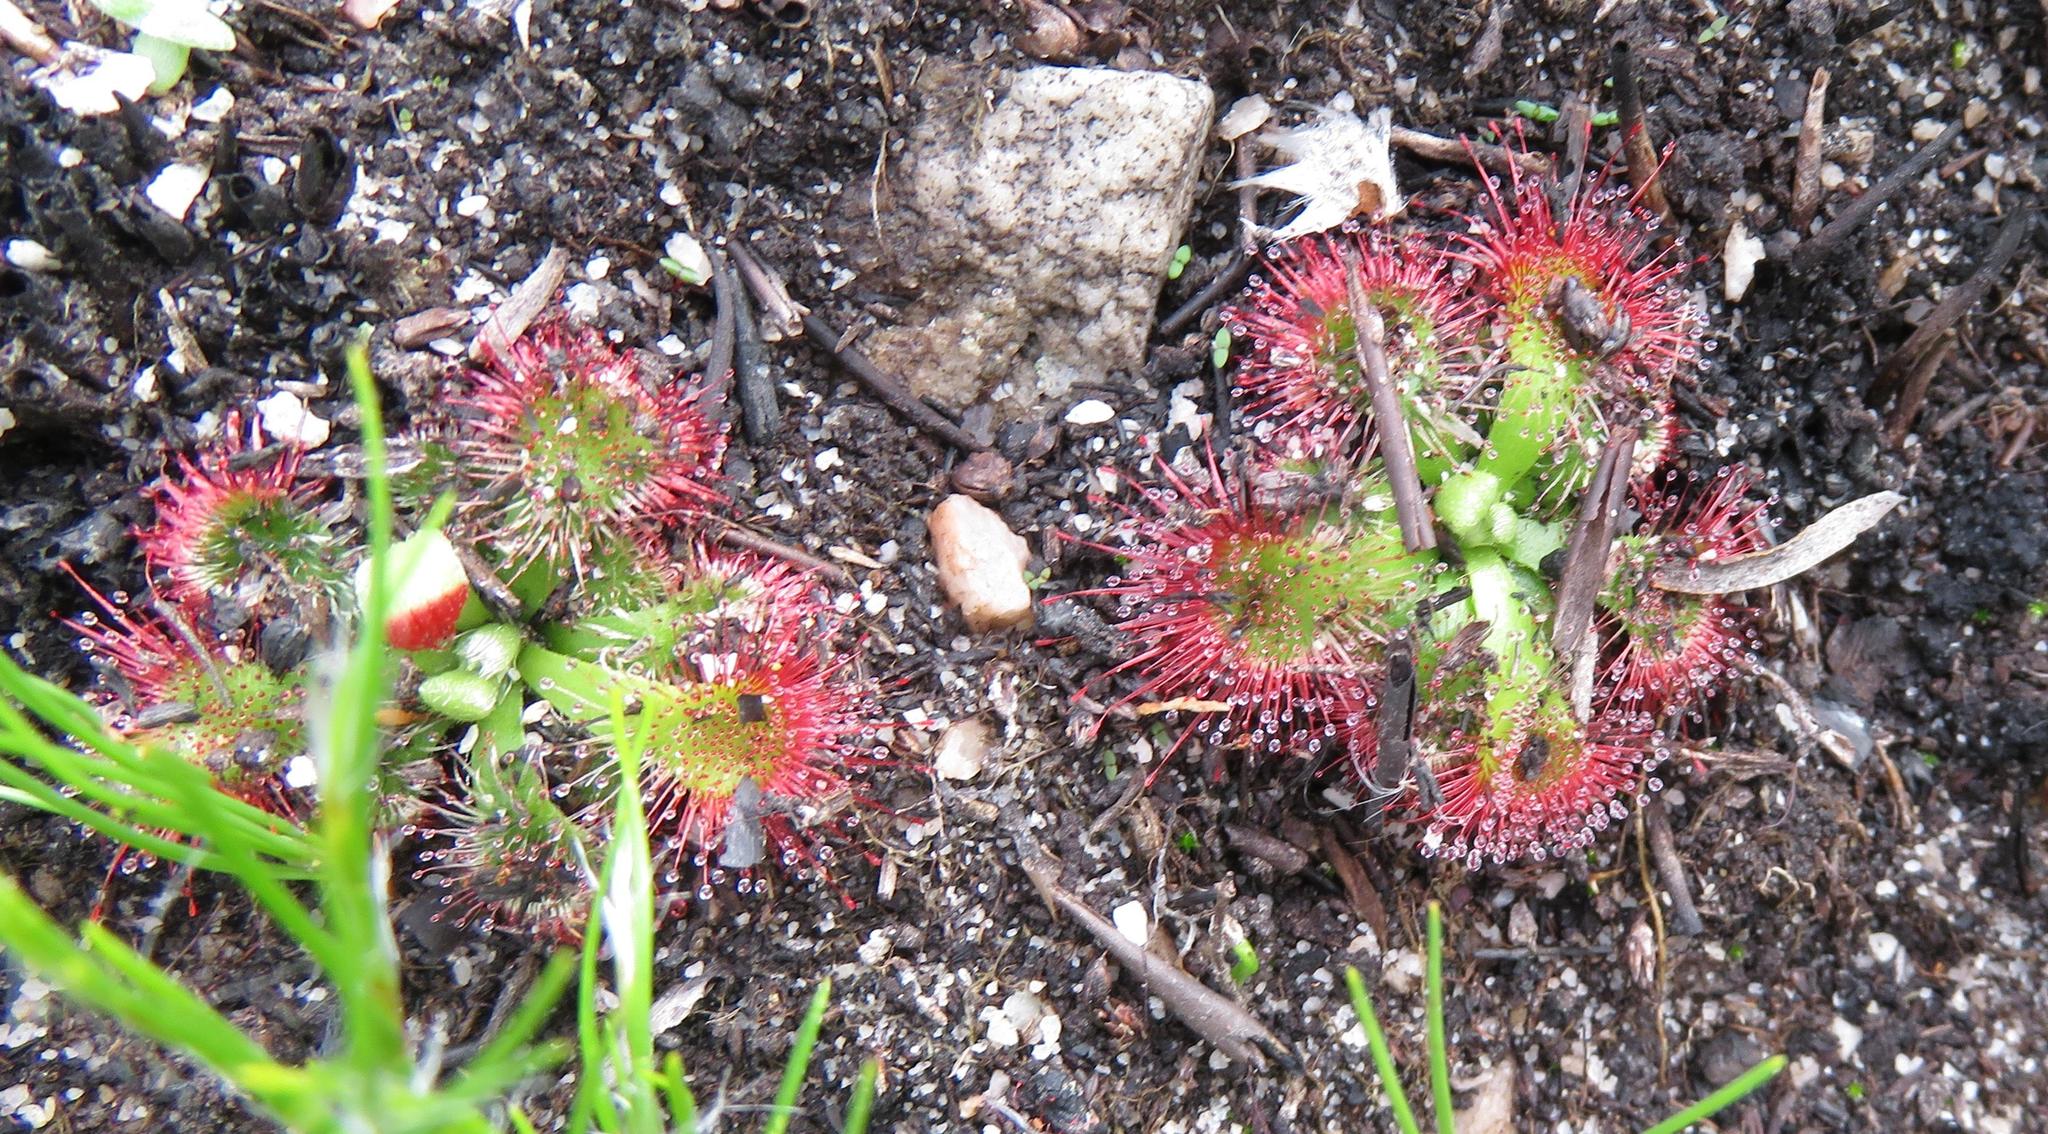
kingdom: Plantae
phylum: Tracheophyta
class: Magnoliopsida
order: Caryophyllales
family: Droseraceae
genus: Drosera
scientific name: Drosera xerophila
